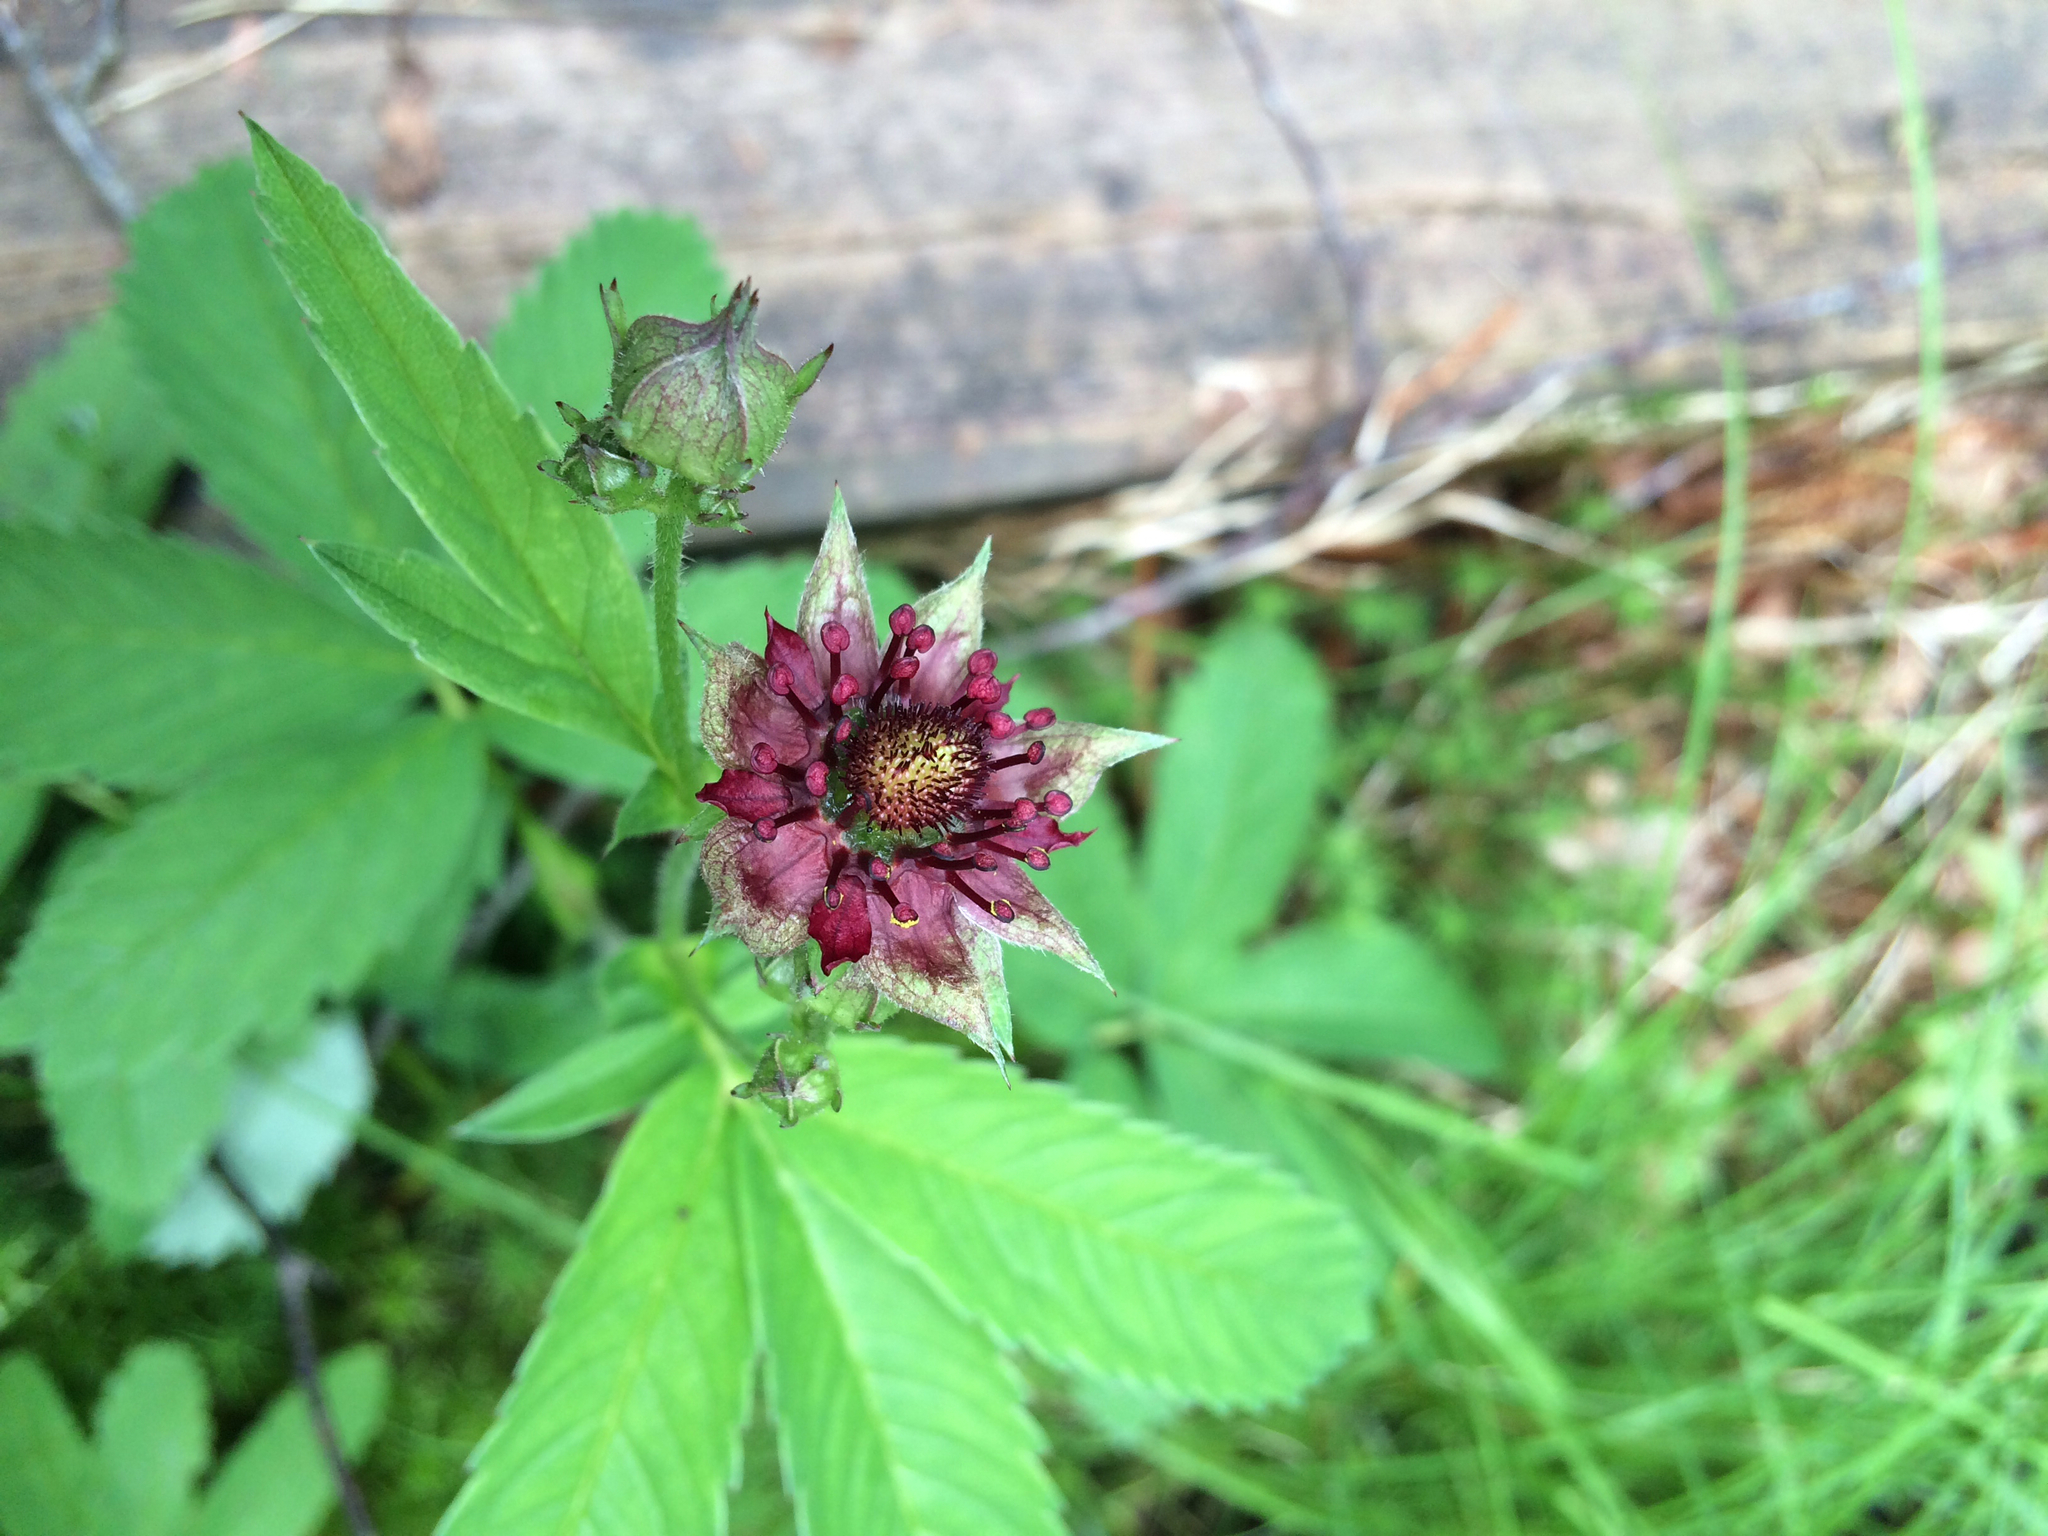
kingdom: Plantae
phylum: Tracheophyta
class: Magnoliopsida
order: Rosales
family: Rosaceae
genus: Comarum
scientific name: Comarum palustre
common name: Marsh cinquefoil
